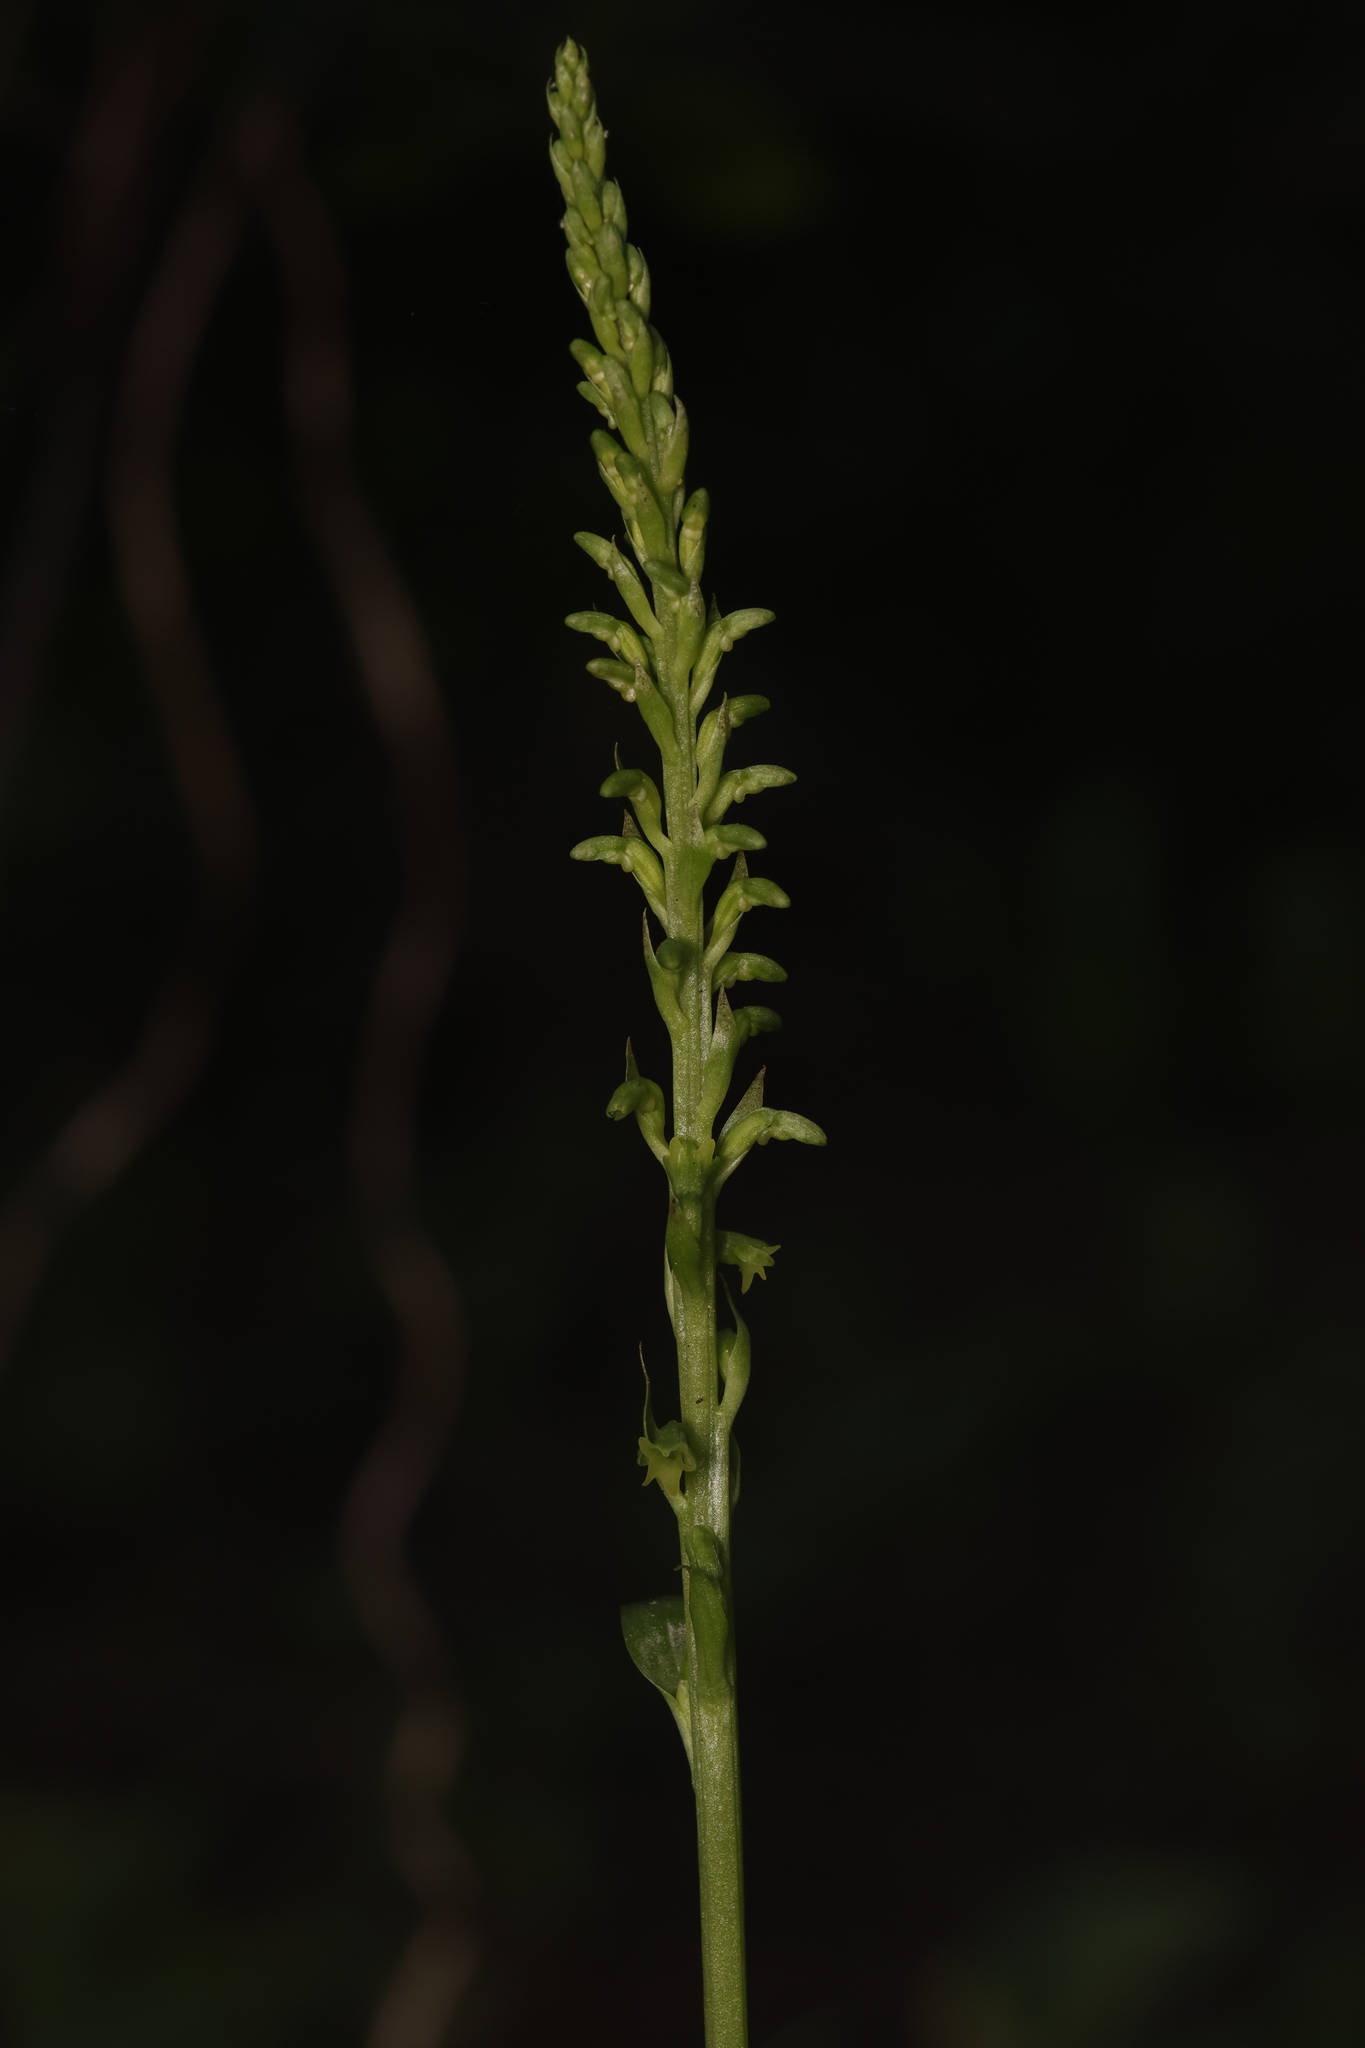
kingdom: Plantae
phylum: Tracheophyta
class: Liliopsida
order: Asparagales
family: Orchidaceae
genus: Gennaria
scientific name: Gennaria diphylla
